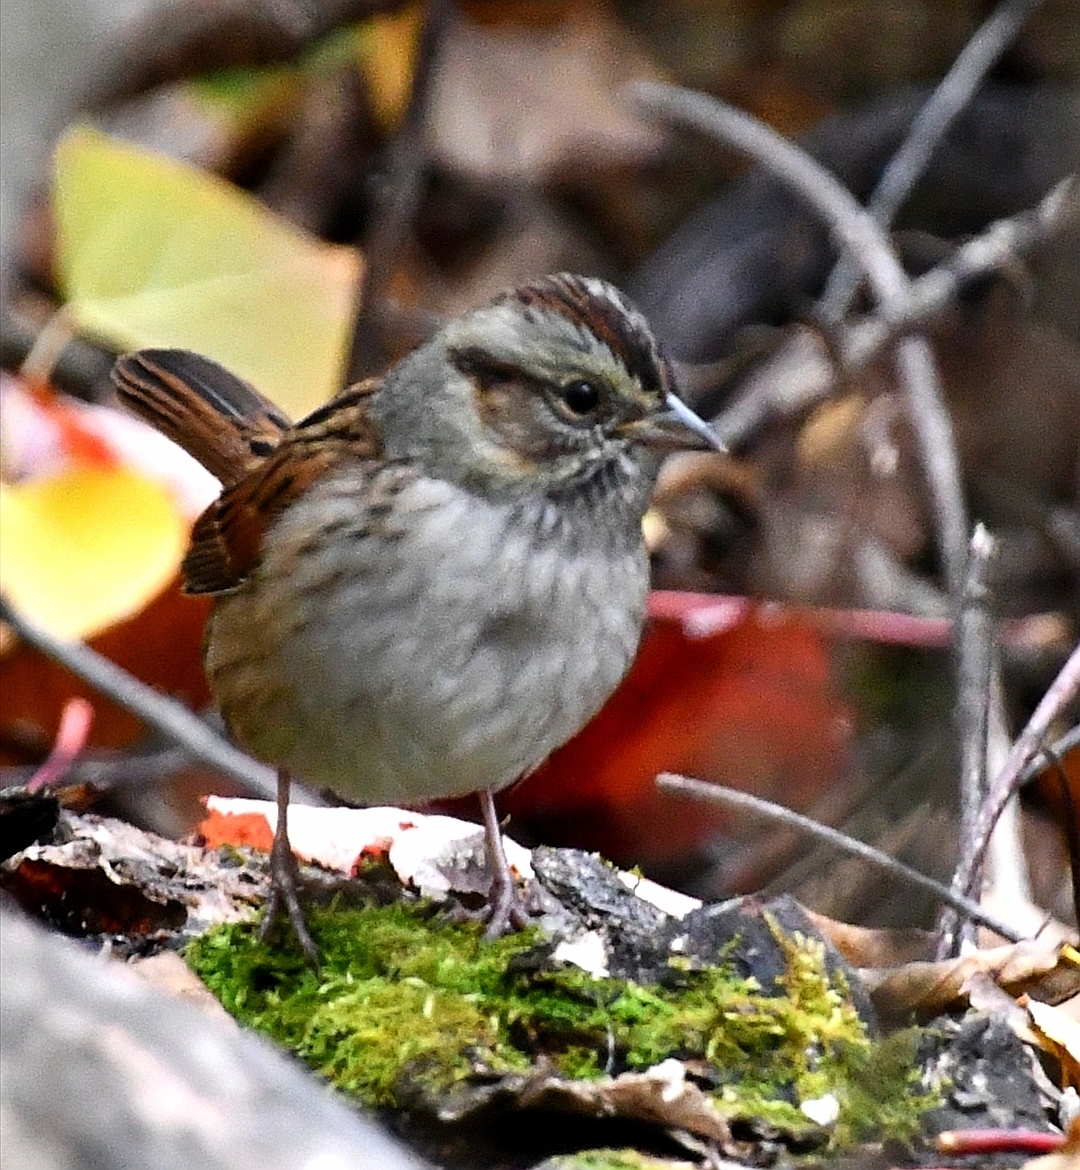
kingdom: Animalia
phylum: Chordata
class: Aves
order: Passeriformes
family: Passerellidae
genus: Melospiza
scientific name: Melospiza georgiana
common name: Swamp sparrow
